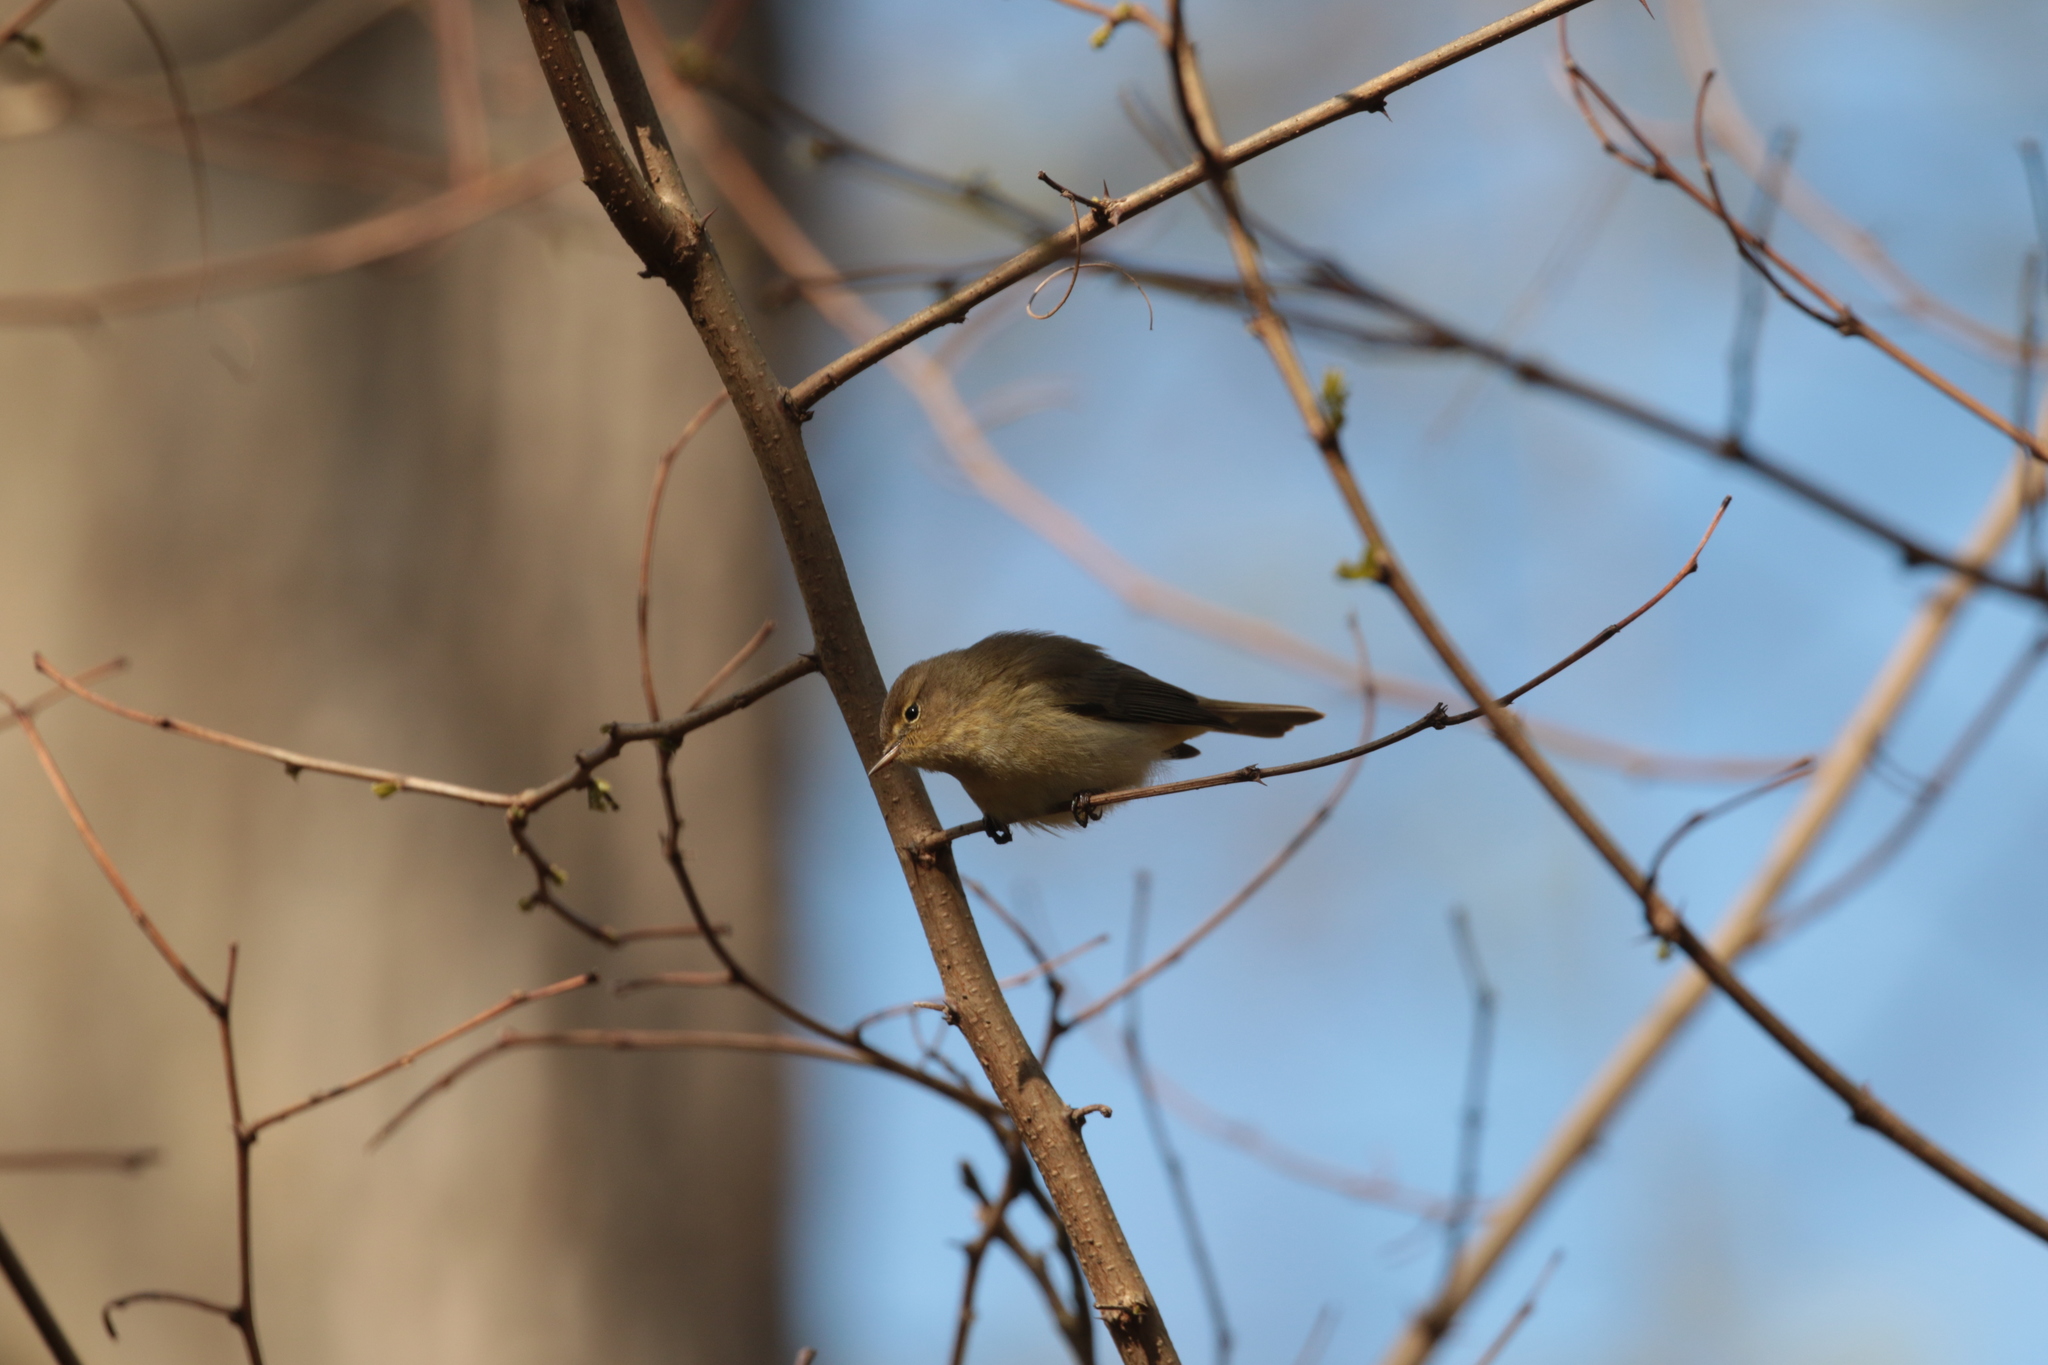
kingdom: Animalia
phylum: Chordata
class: Aves
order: Passeriformes
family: Phylloscopidae
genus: Phylloscopus
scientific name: Phylloscopus collybita
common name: Common chiffchaff
